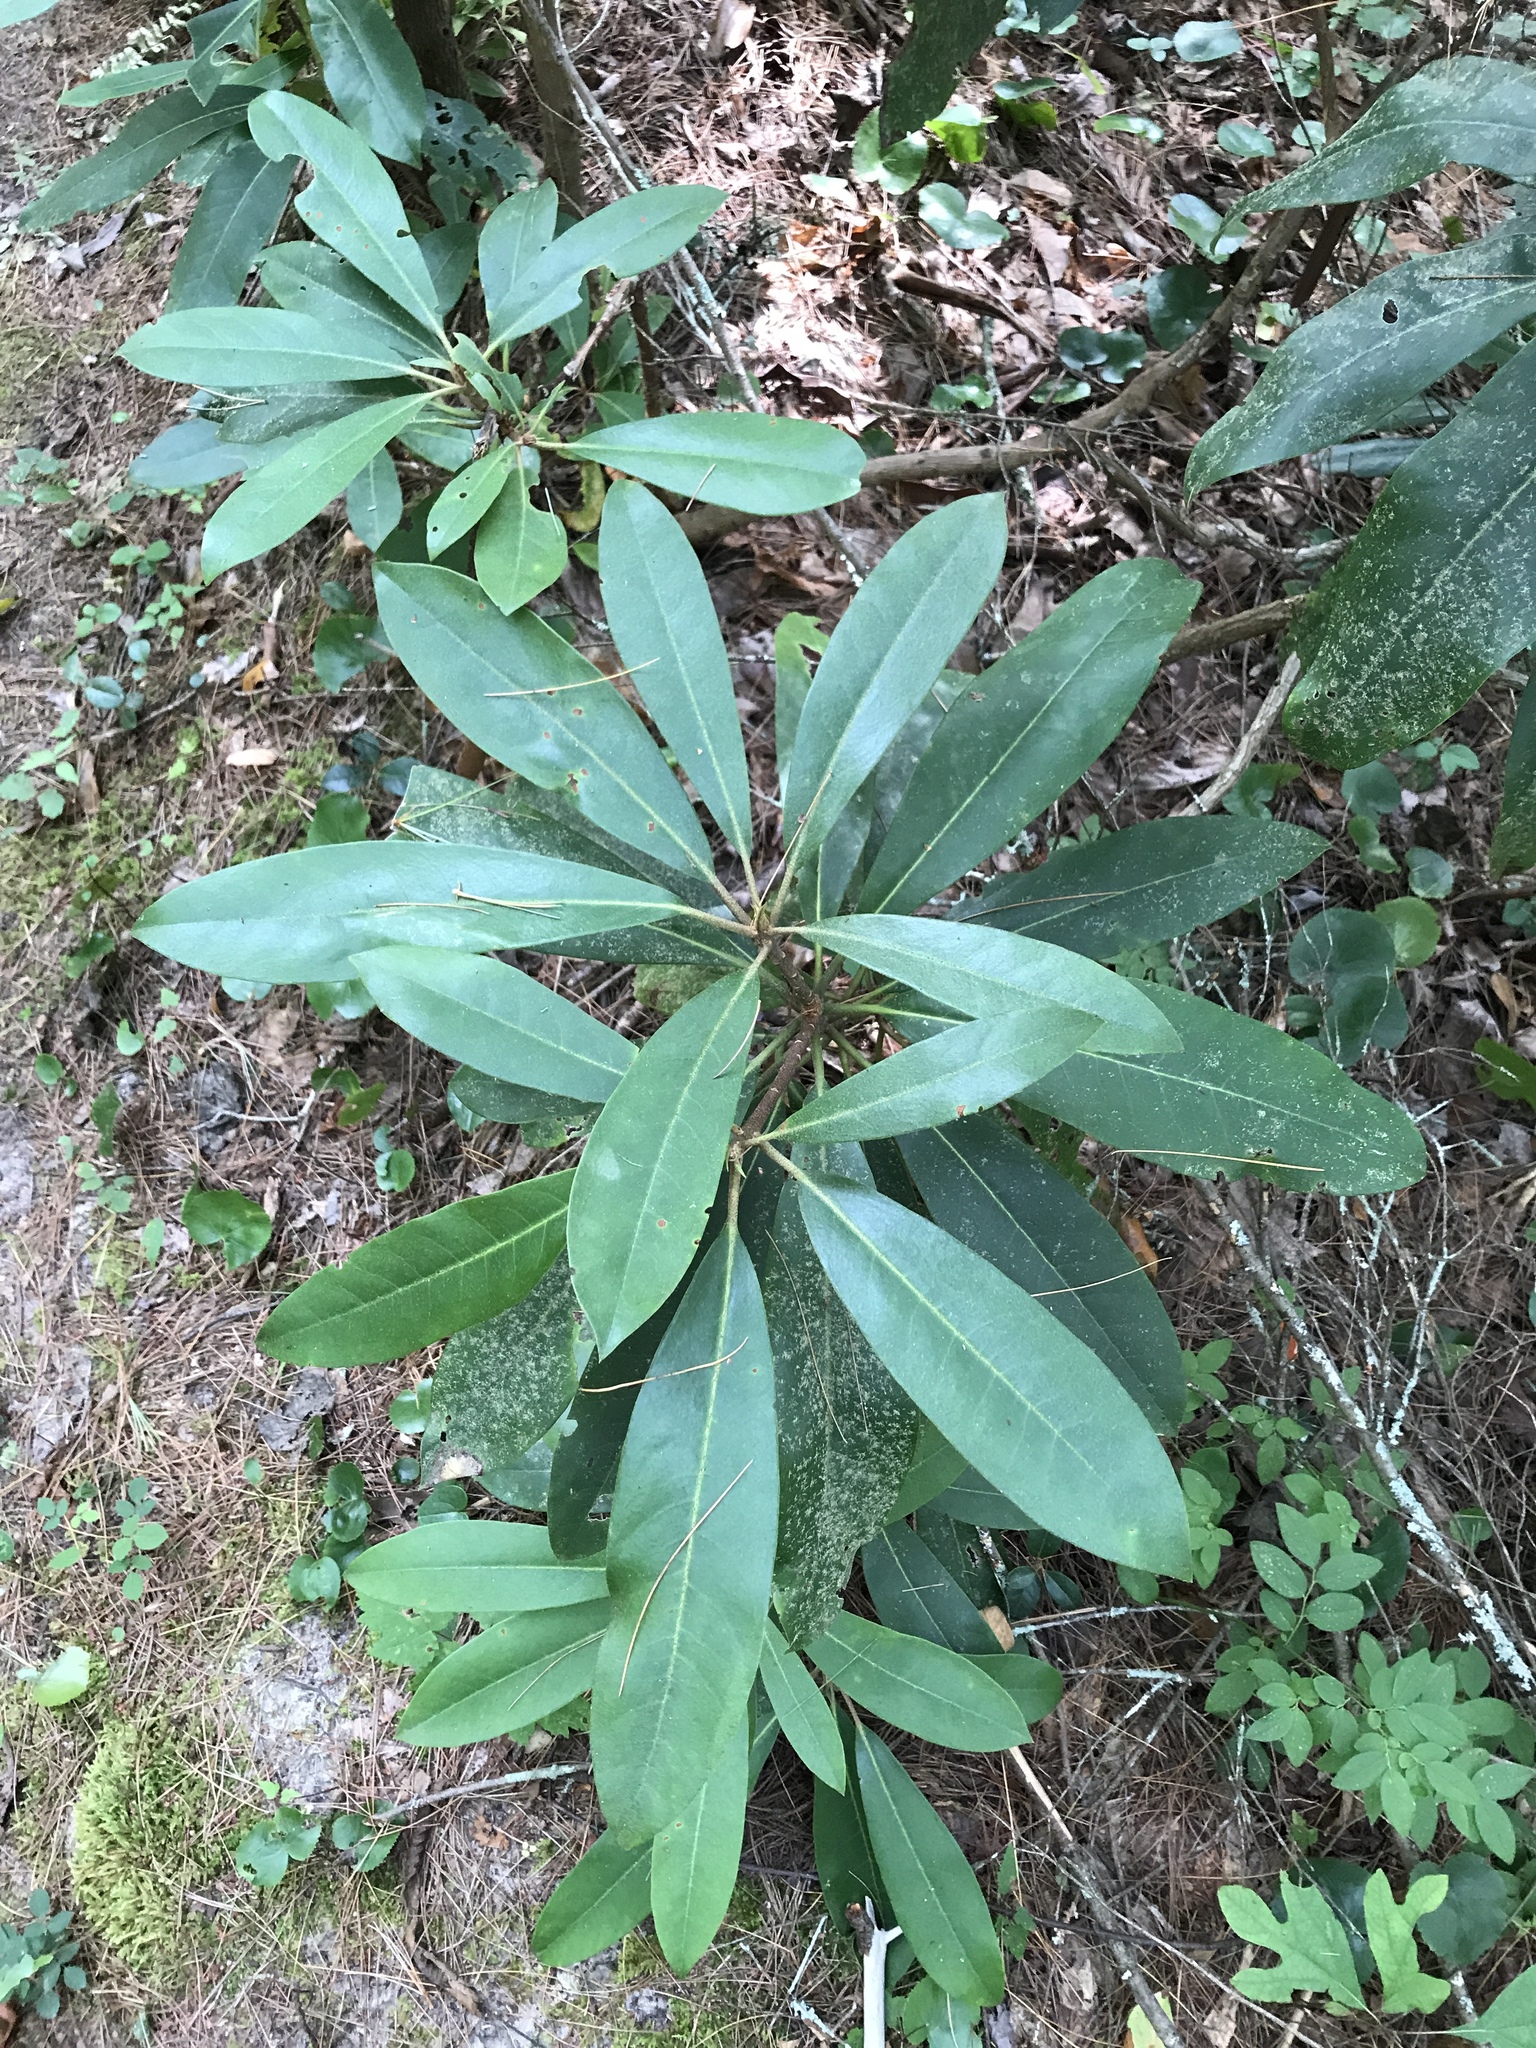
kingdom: Plantae
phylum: Tracheophyta
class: Magnoliopsida
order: Ericales
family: Ericaceae
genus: Rhododendron
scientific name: Rhododendron maximum
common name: Great rhododendron
